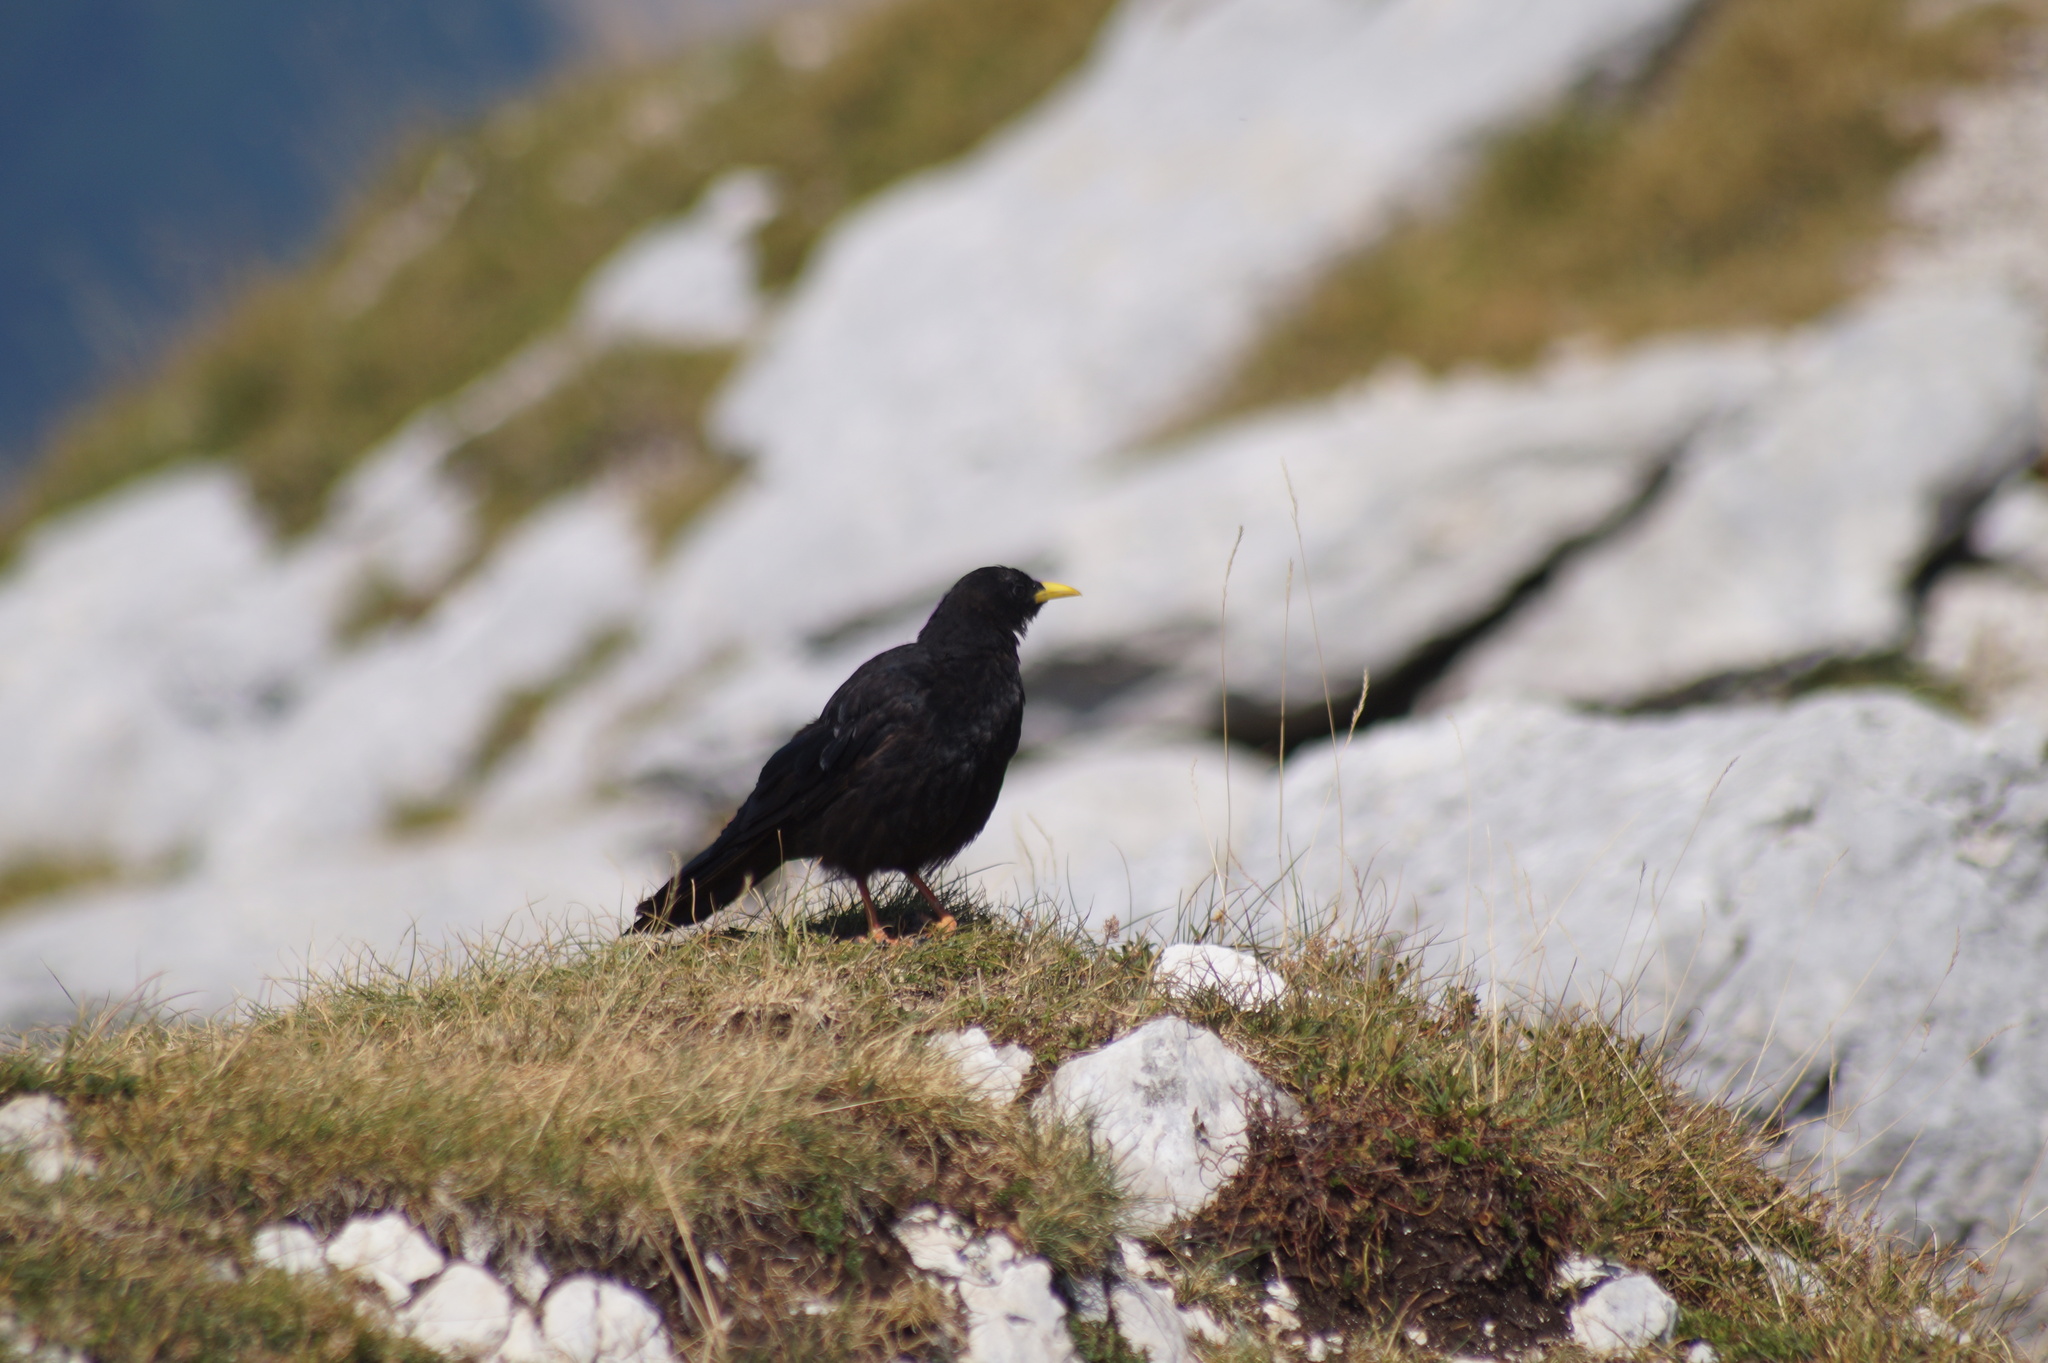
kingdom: Animalia
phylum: Chordata
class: Aves
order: Passeriformes
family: Corvidae
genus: Pyrrhocorax
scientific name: Pyrrhocorax graculus
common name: Alpine chough
